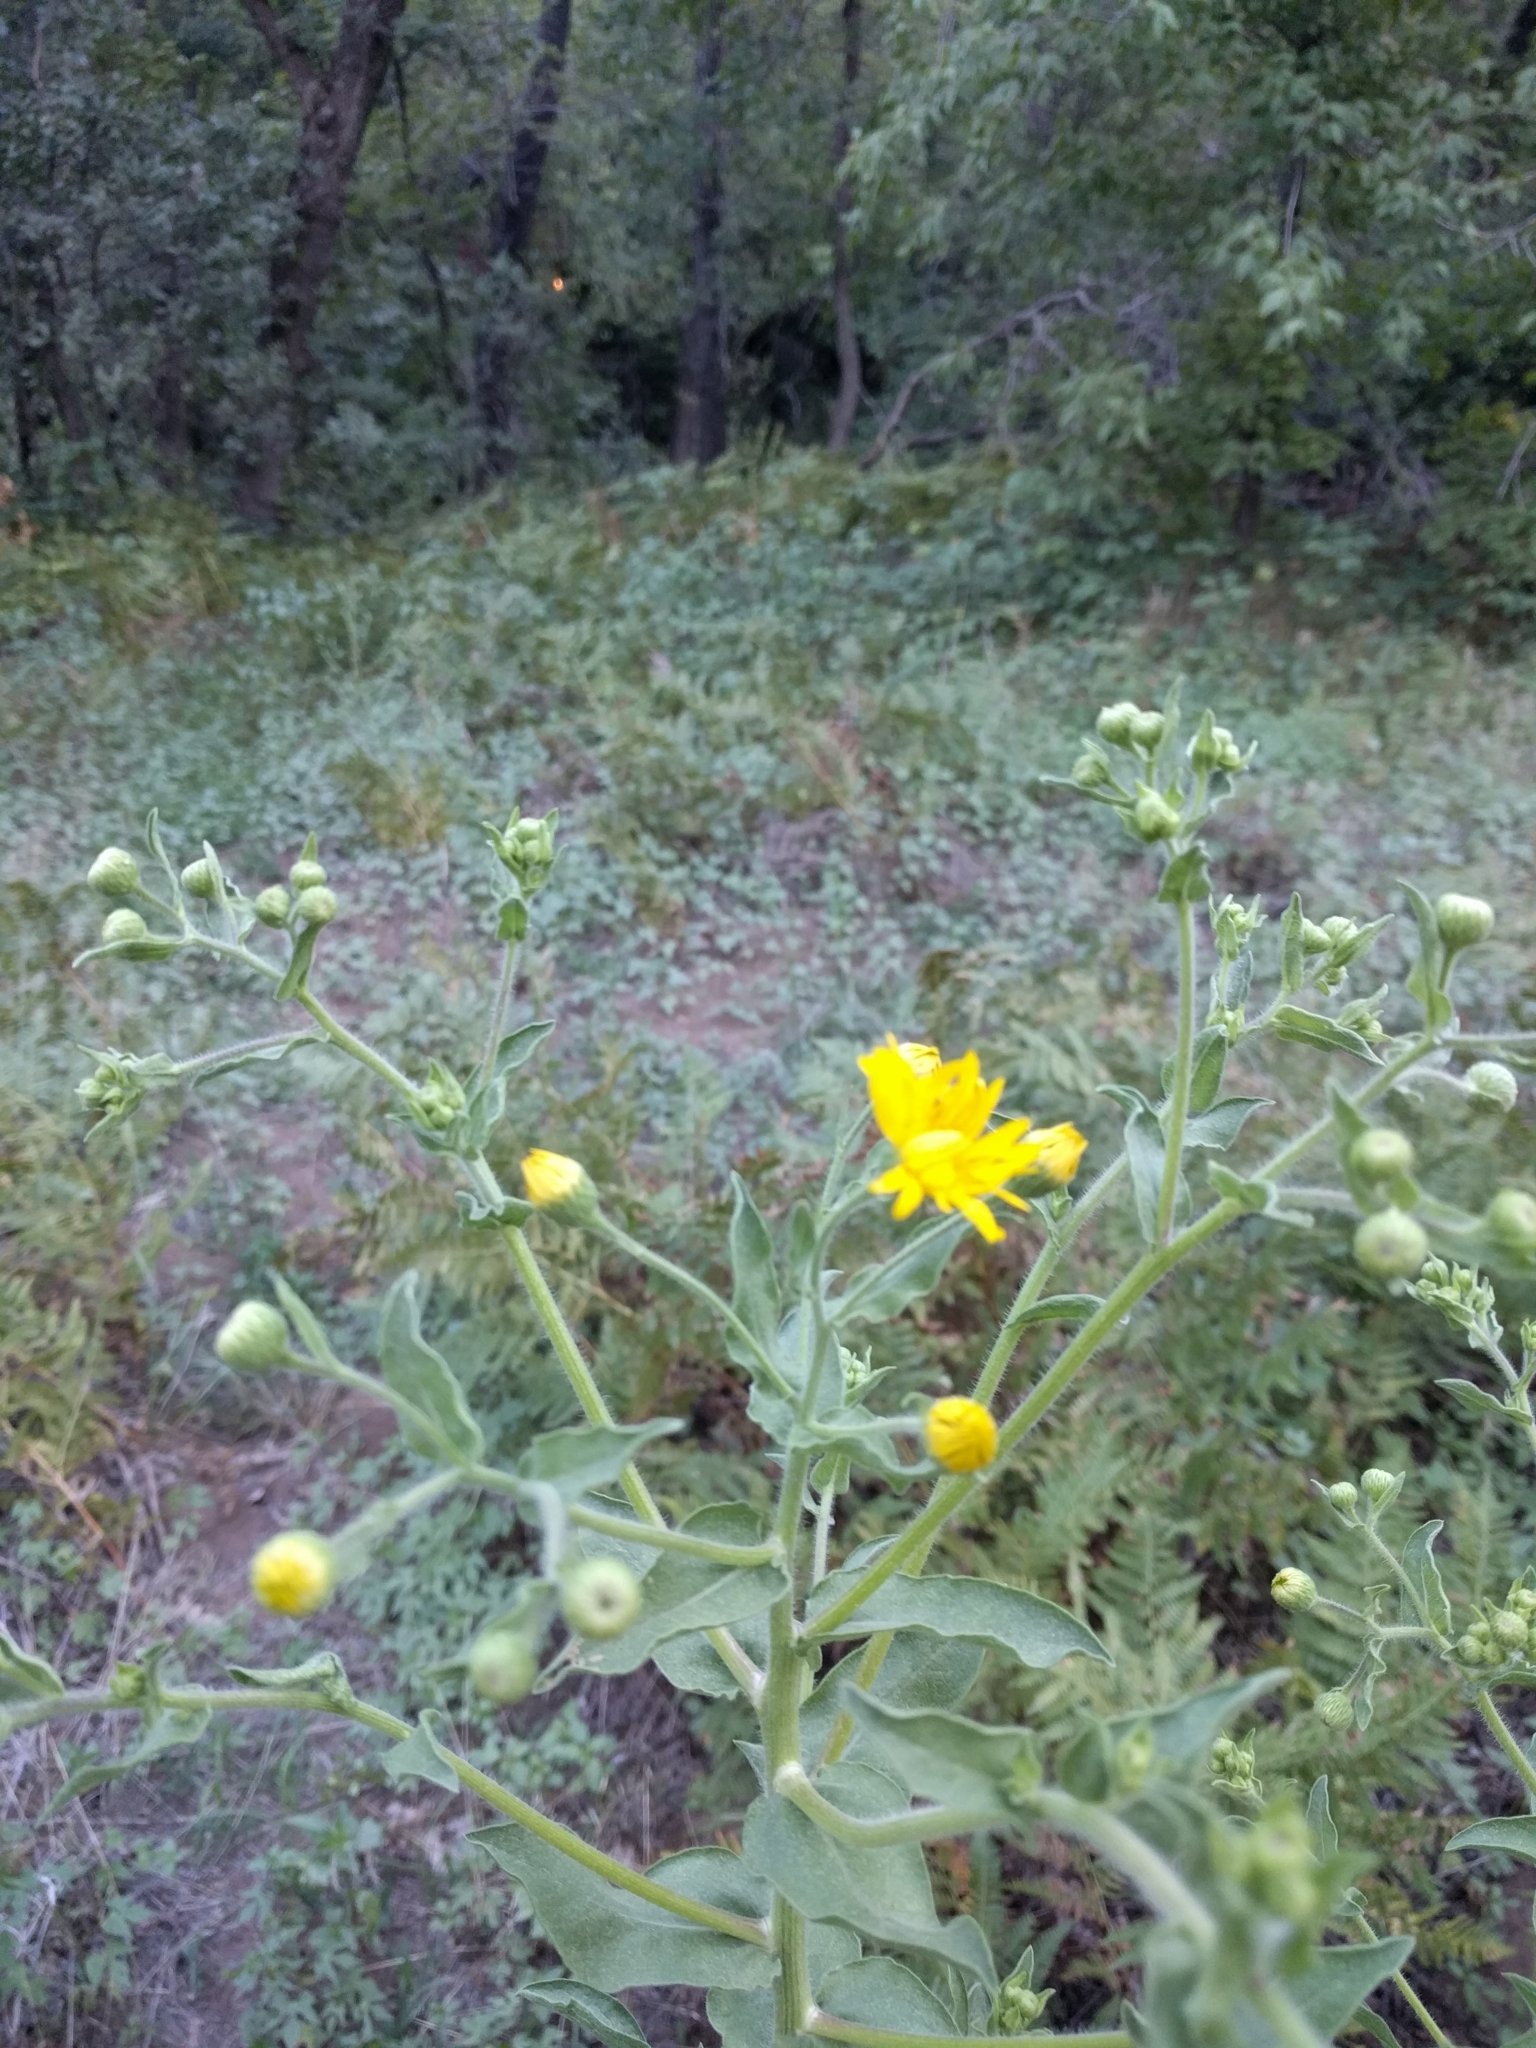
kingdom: Plantae
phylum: Tracheophyta
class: Magnoliopsida
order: Asterales
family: Asteraceae
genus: Heterotheca
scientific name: Heterotheca subaxillaris
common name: Camphorweed
